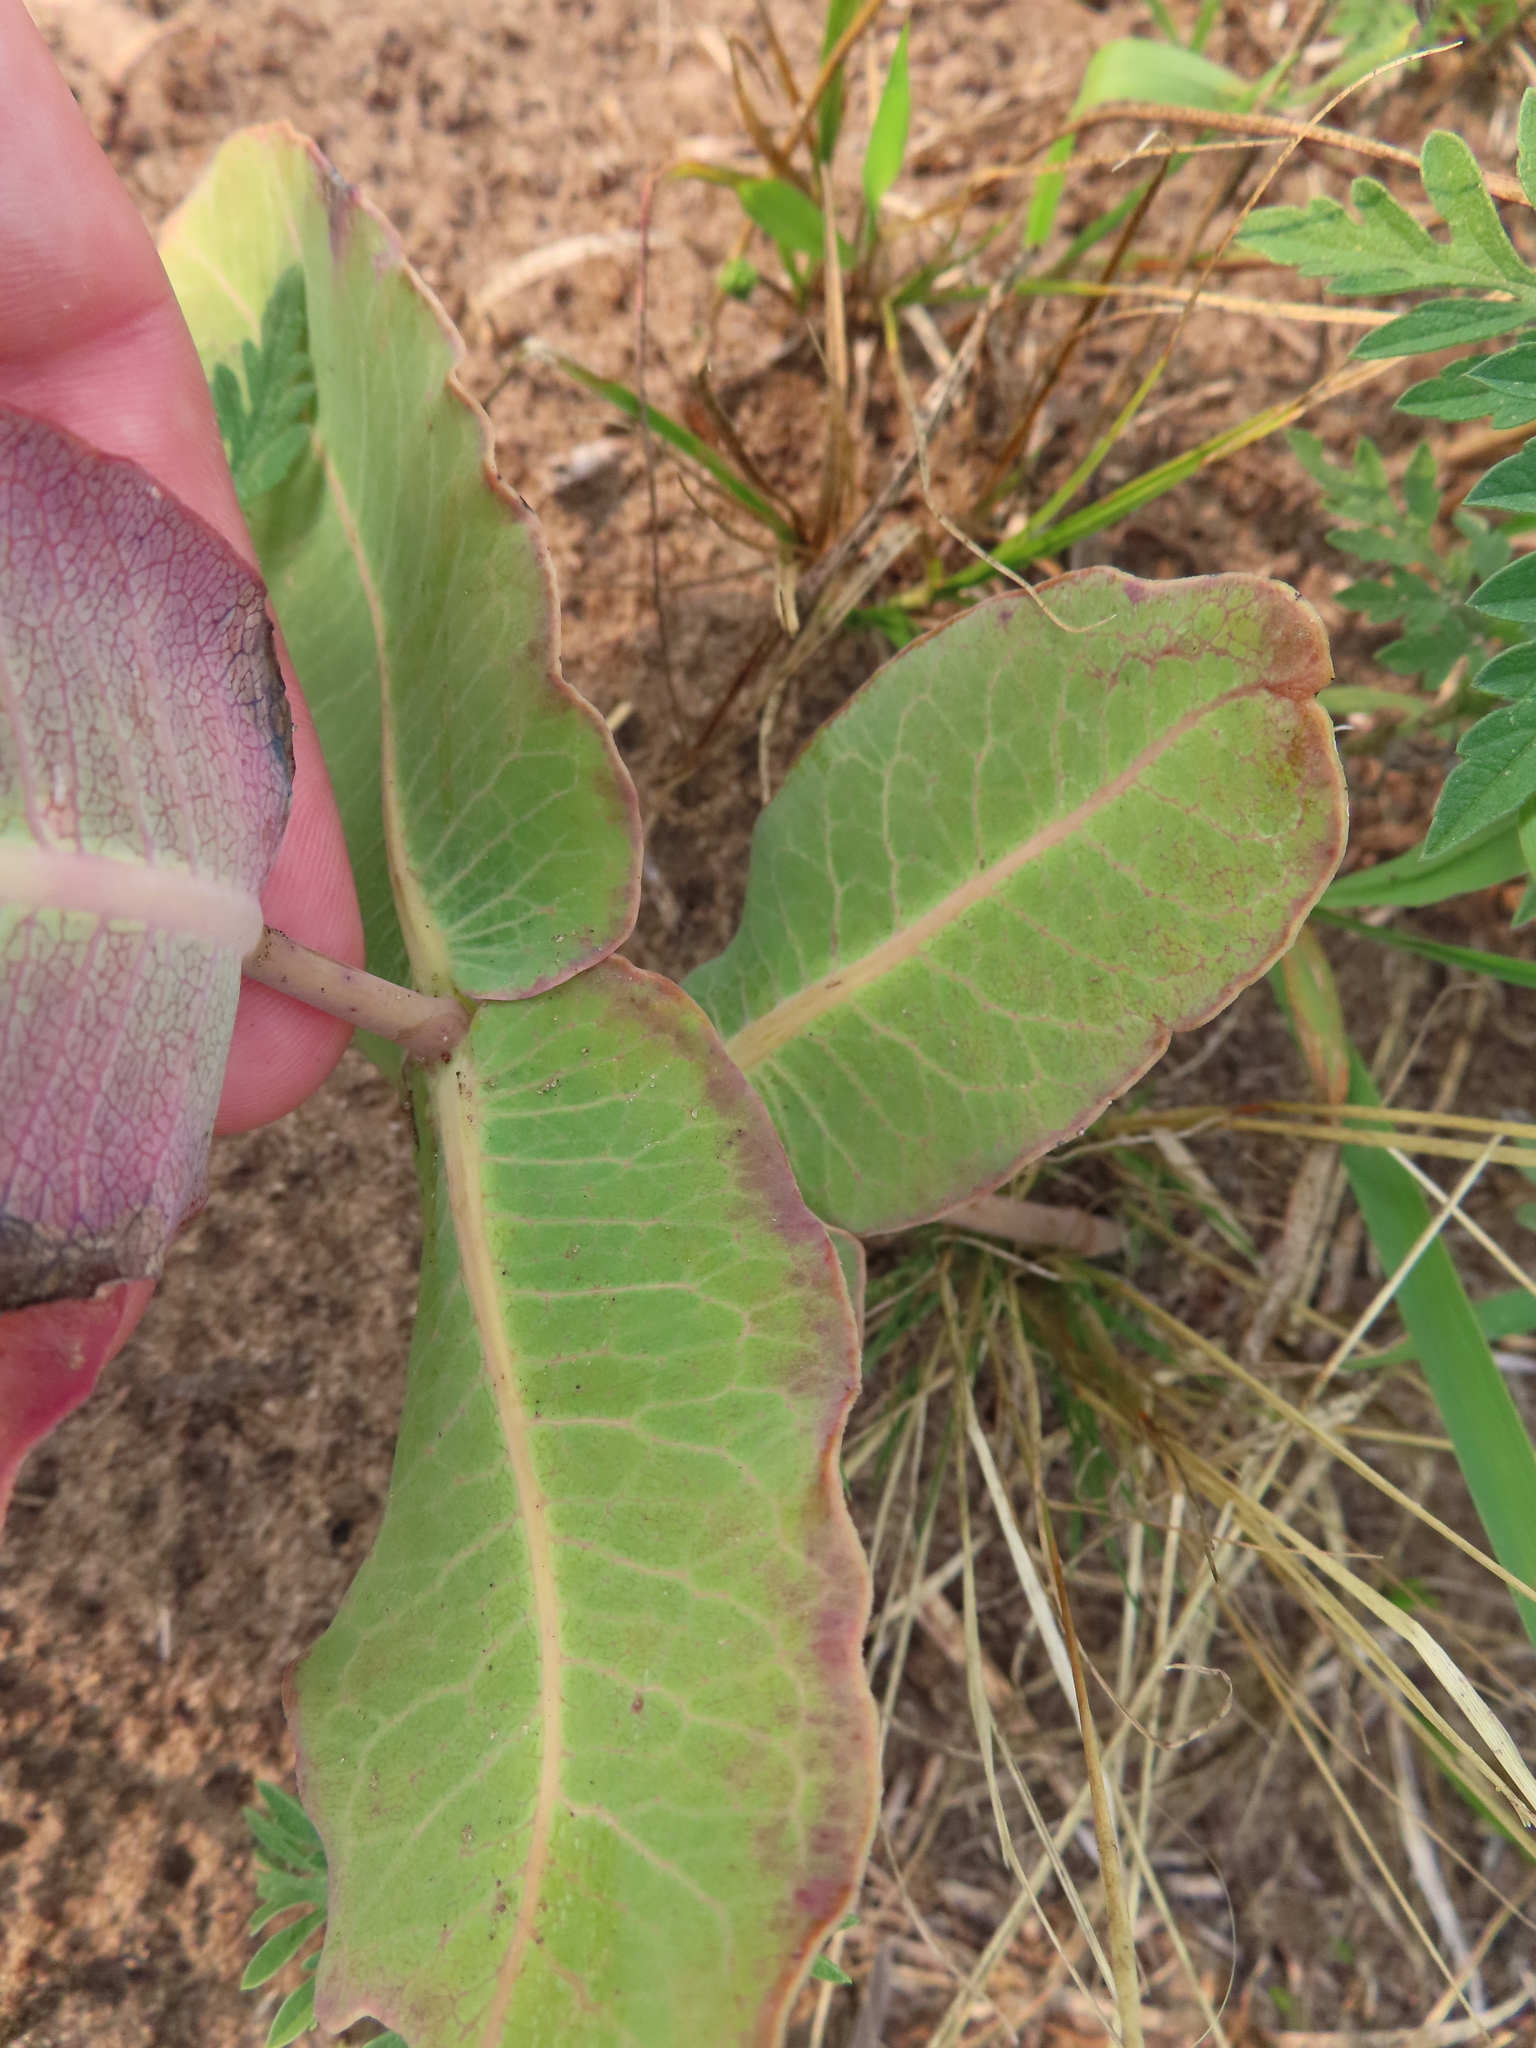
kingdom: Plantae
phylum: Tracheophyta
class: Magnoliopsida
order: Gentianales
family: Apocynaceae
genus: Asclepias
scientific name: Asclepias amplexicaulis
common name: Blunt-leaf milkweed
